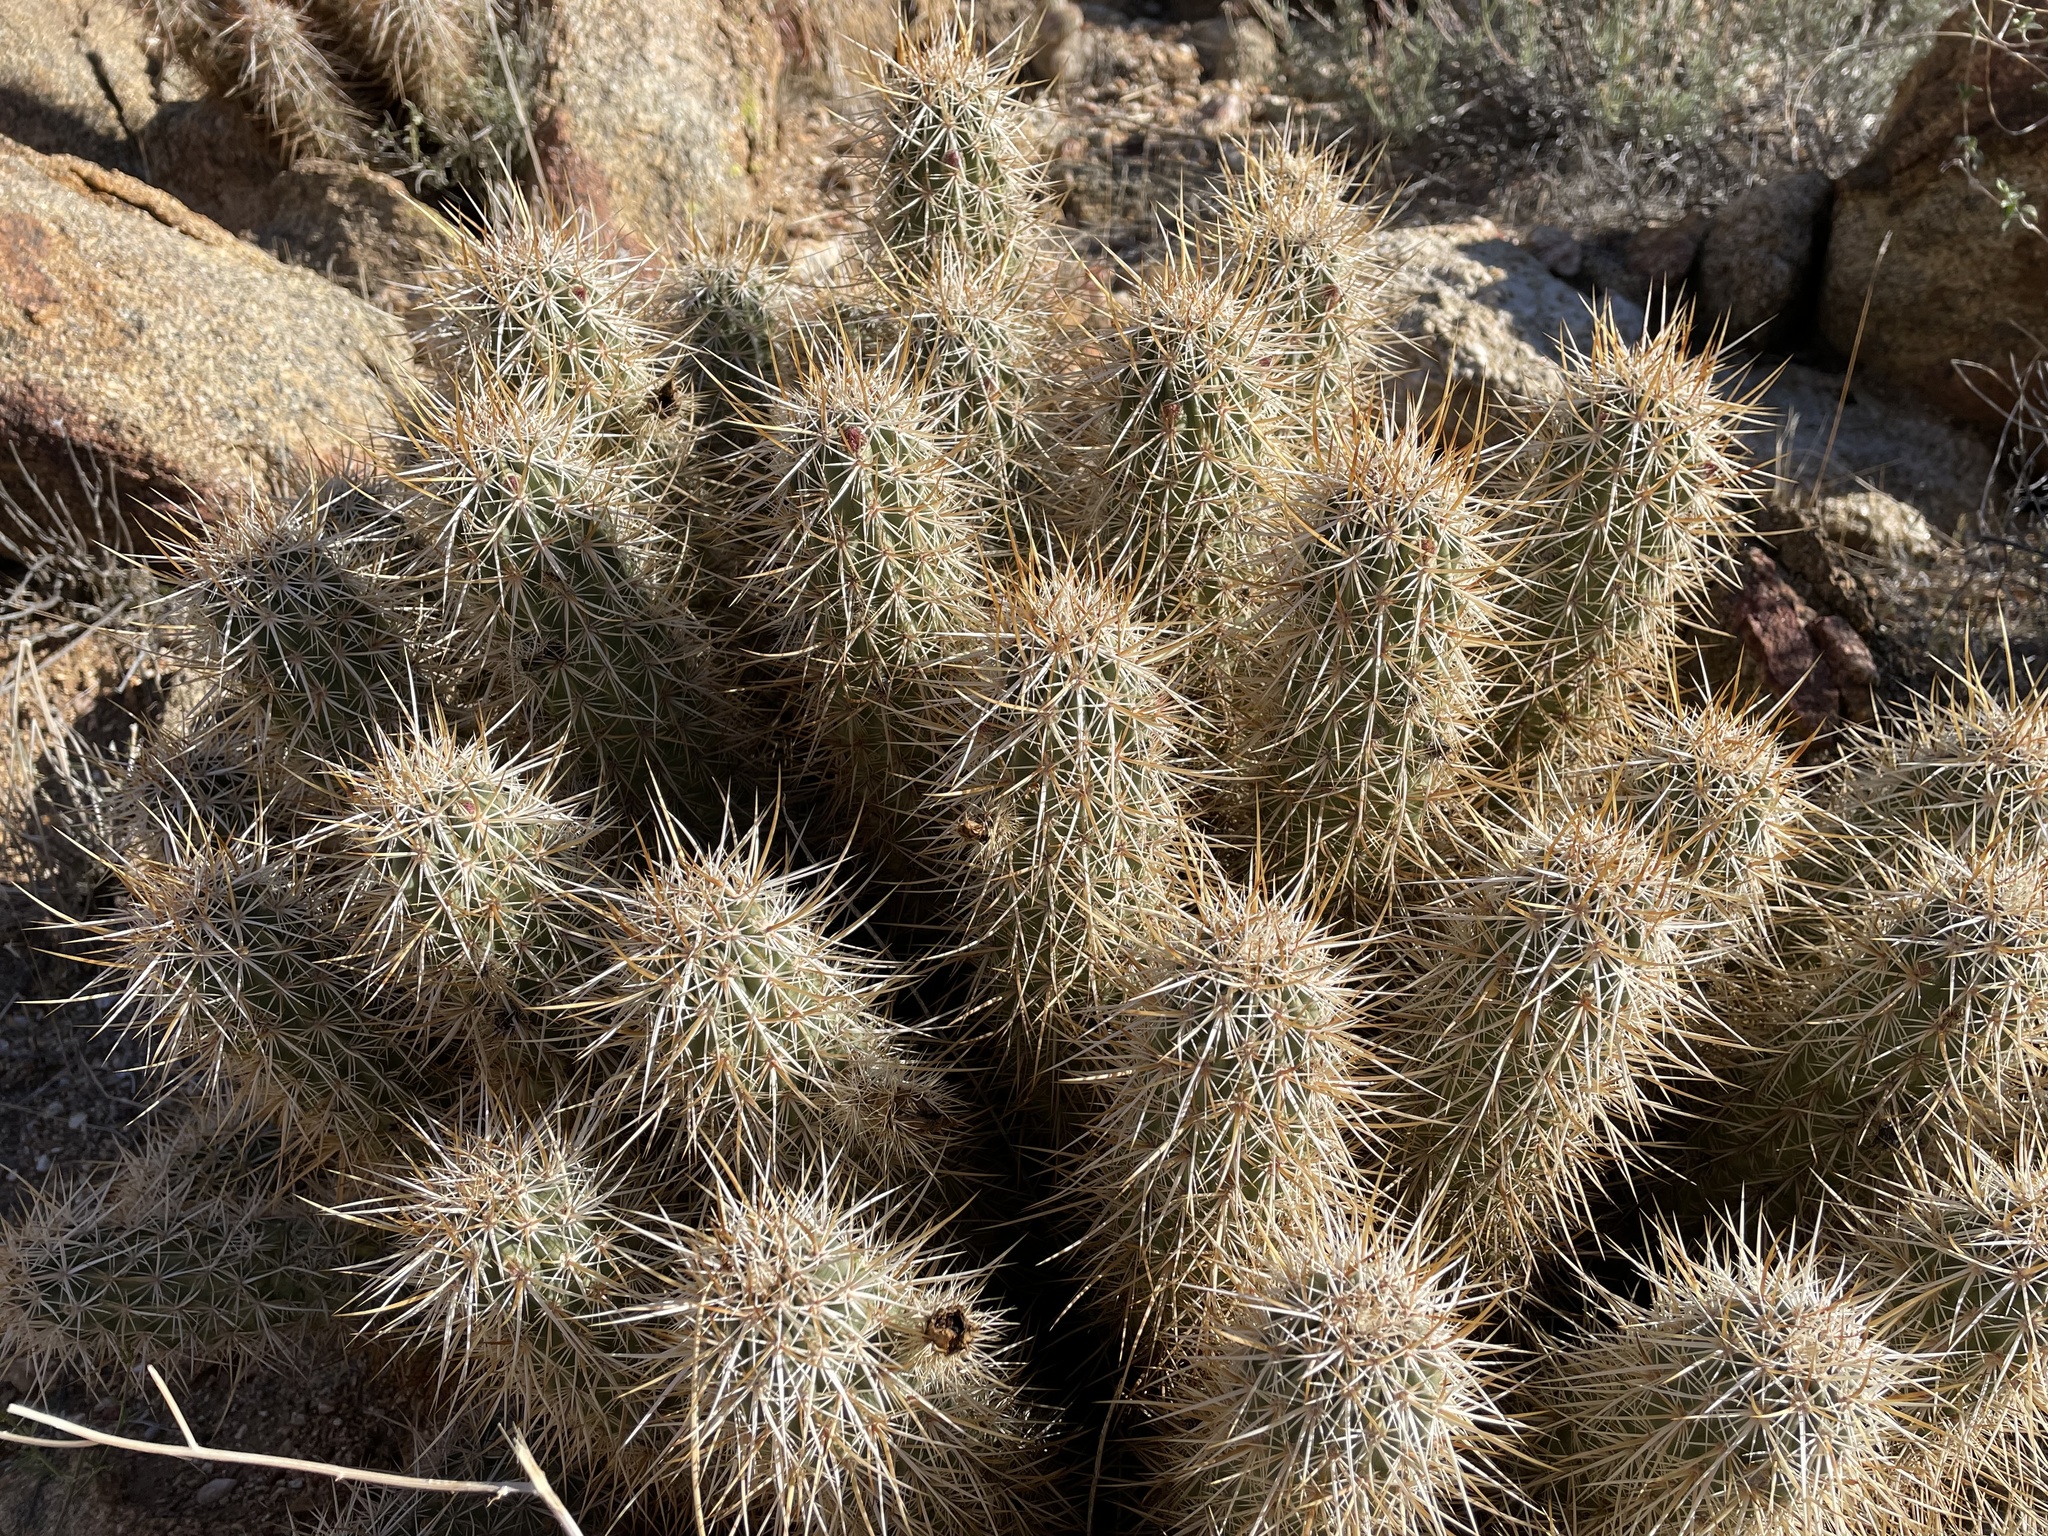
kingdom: Plantae
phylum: Tracheophyta
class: Magnoliopsida
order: Caryophyllales
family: Cactaceae
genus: Echinocereus
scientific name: Echinocereus engelmannii
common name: Engelmann's hedgehog cactus
